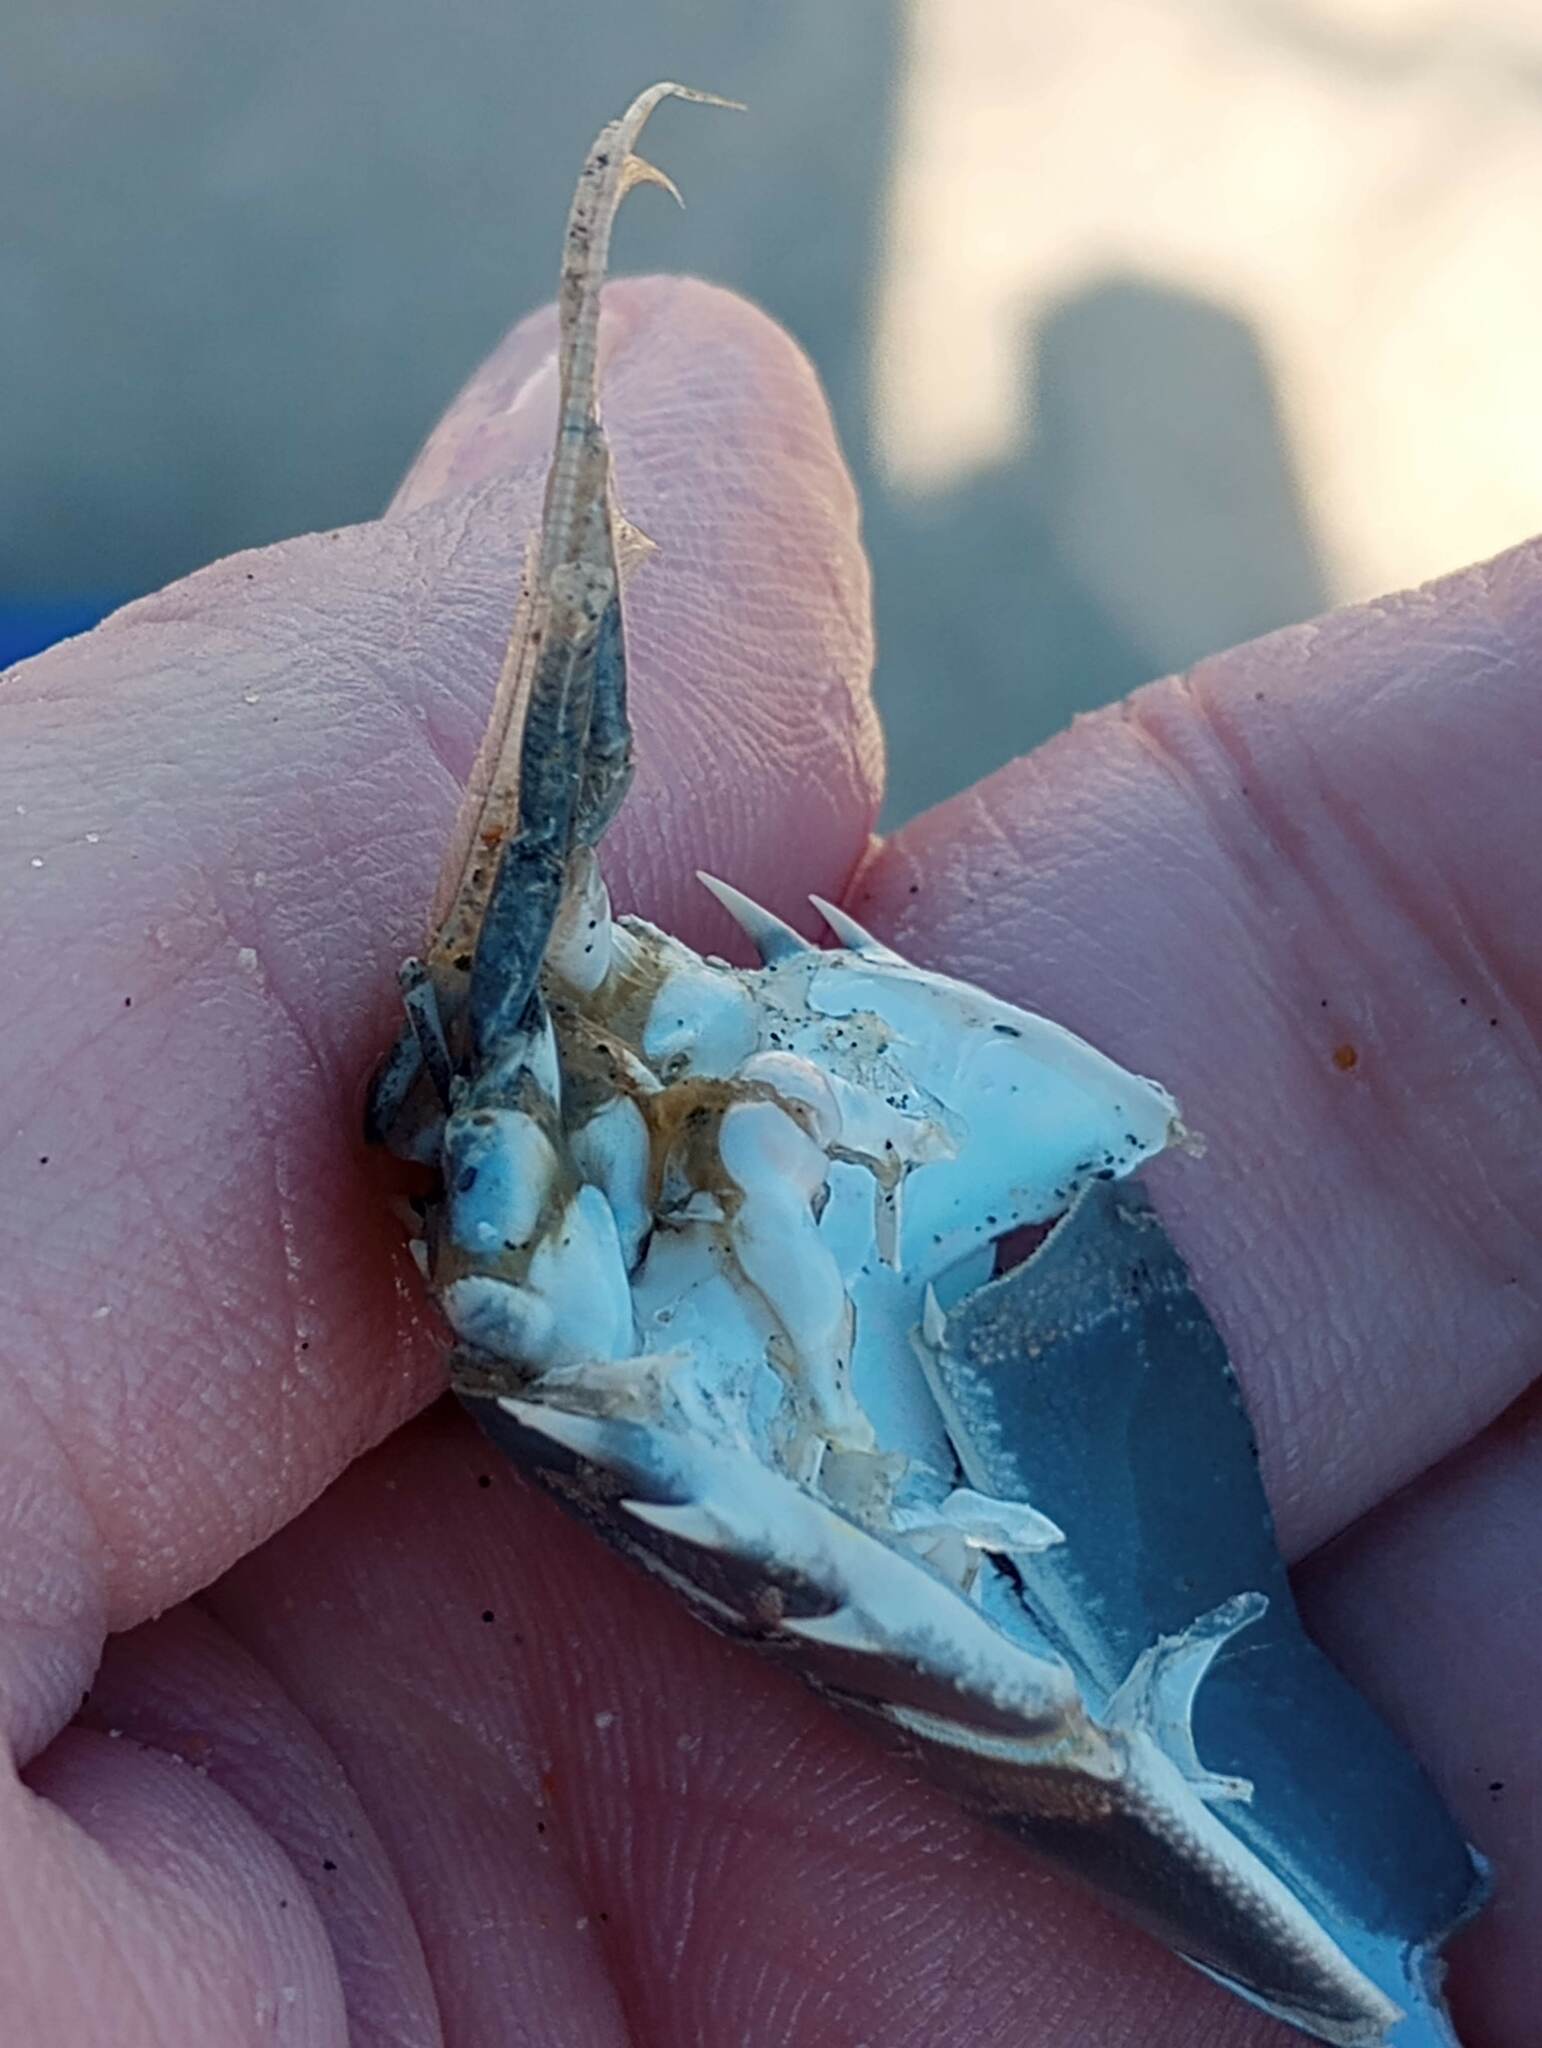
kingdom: Animalia
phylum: Arthropoda
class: Malacostraca
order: Decapoda
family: Blepharipodidae
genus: Blepharipoda
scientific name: Blepharipoda occidentalis
